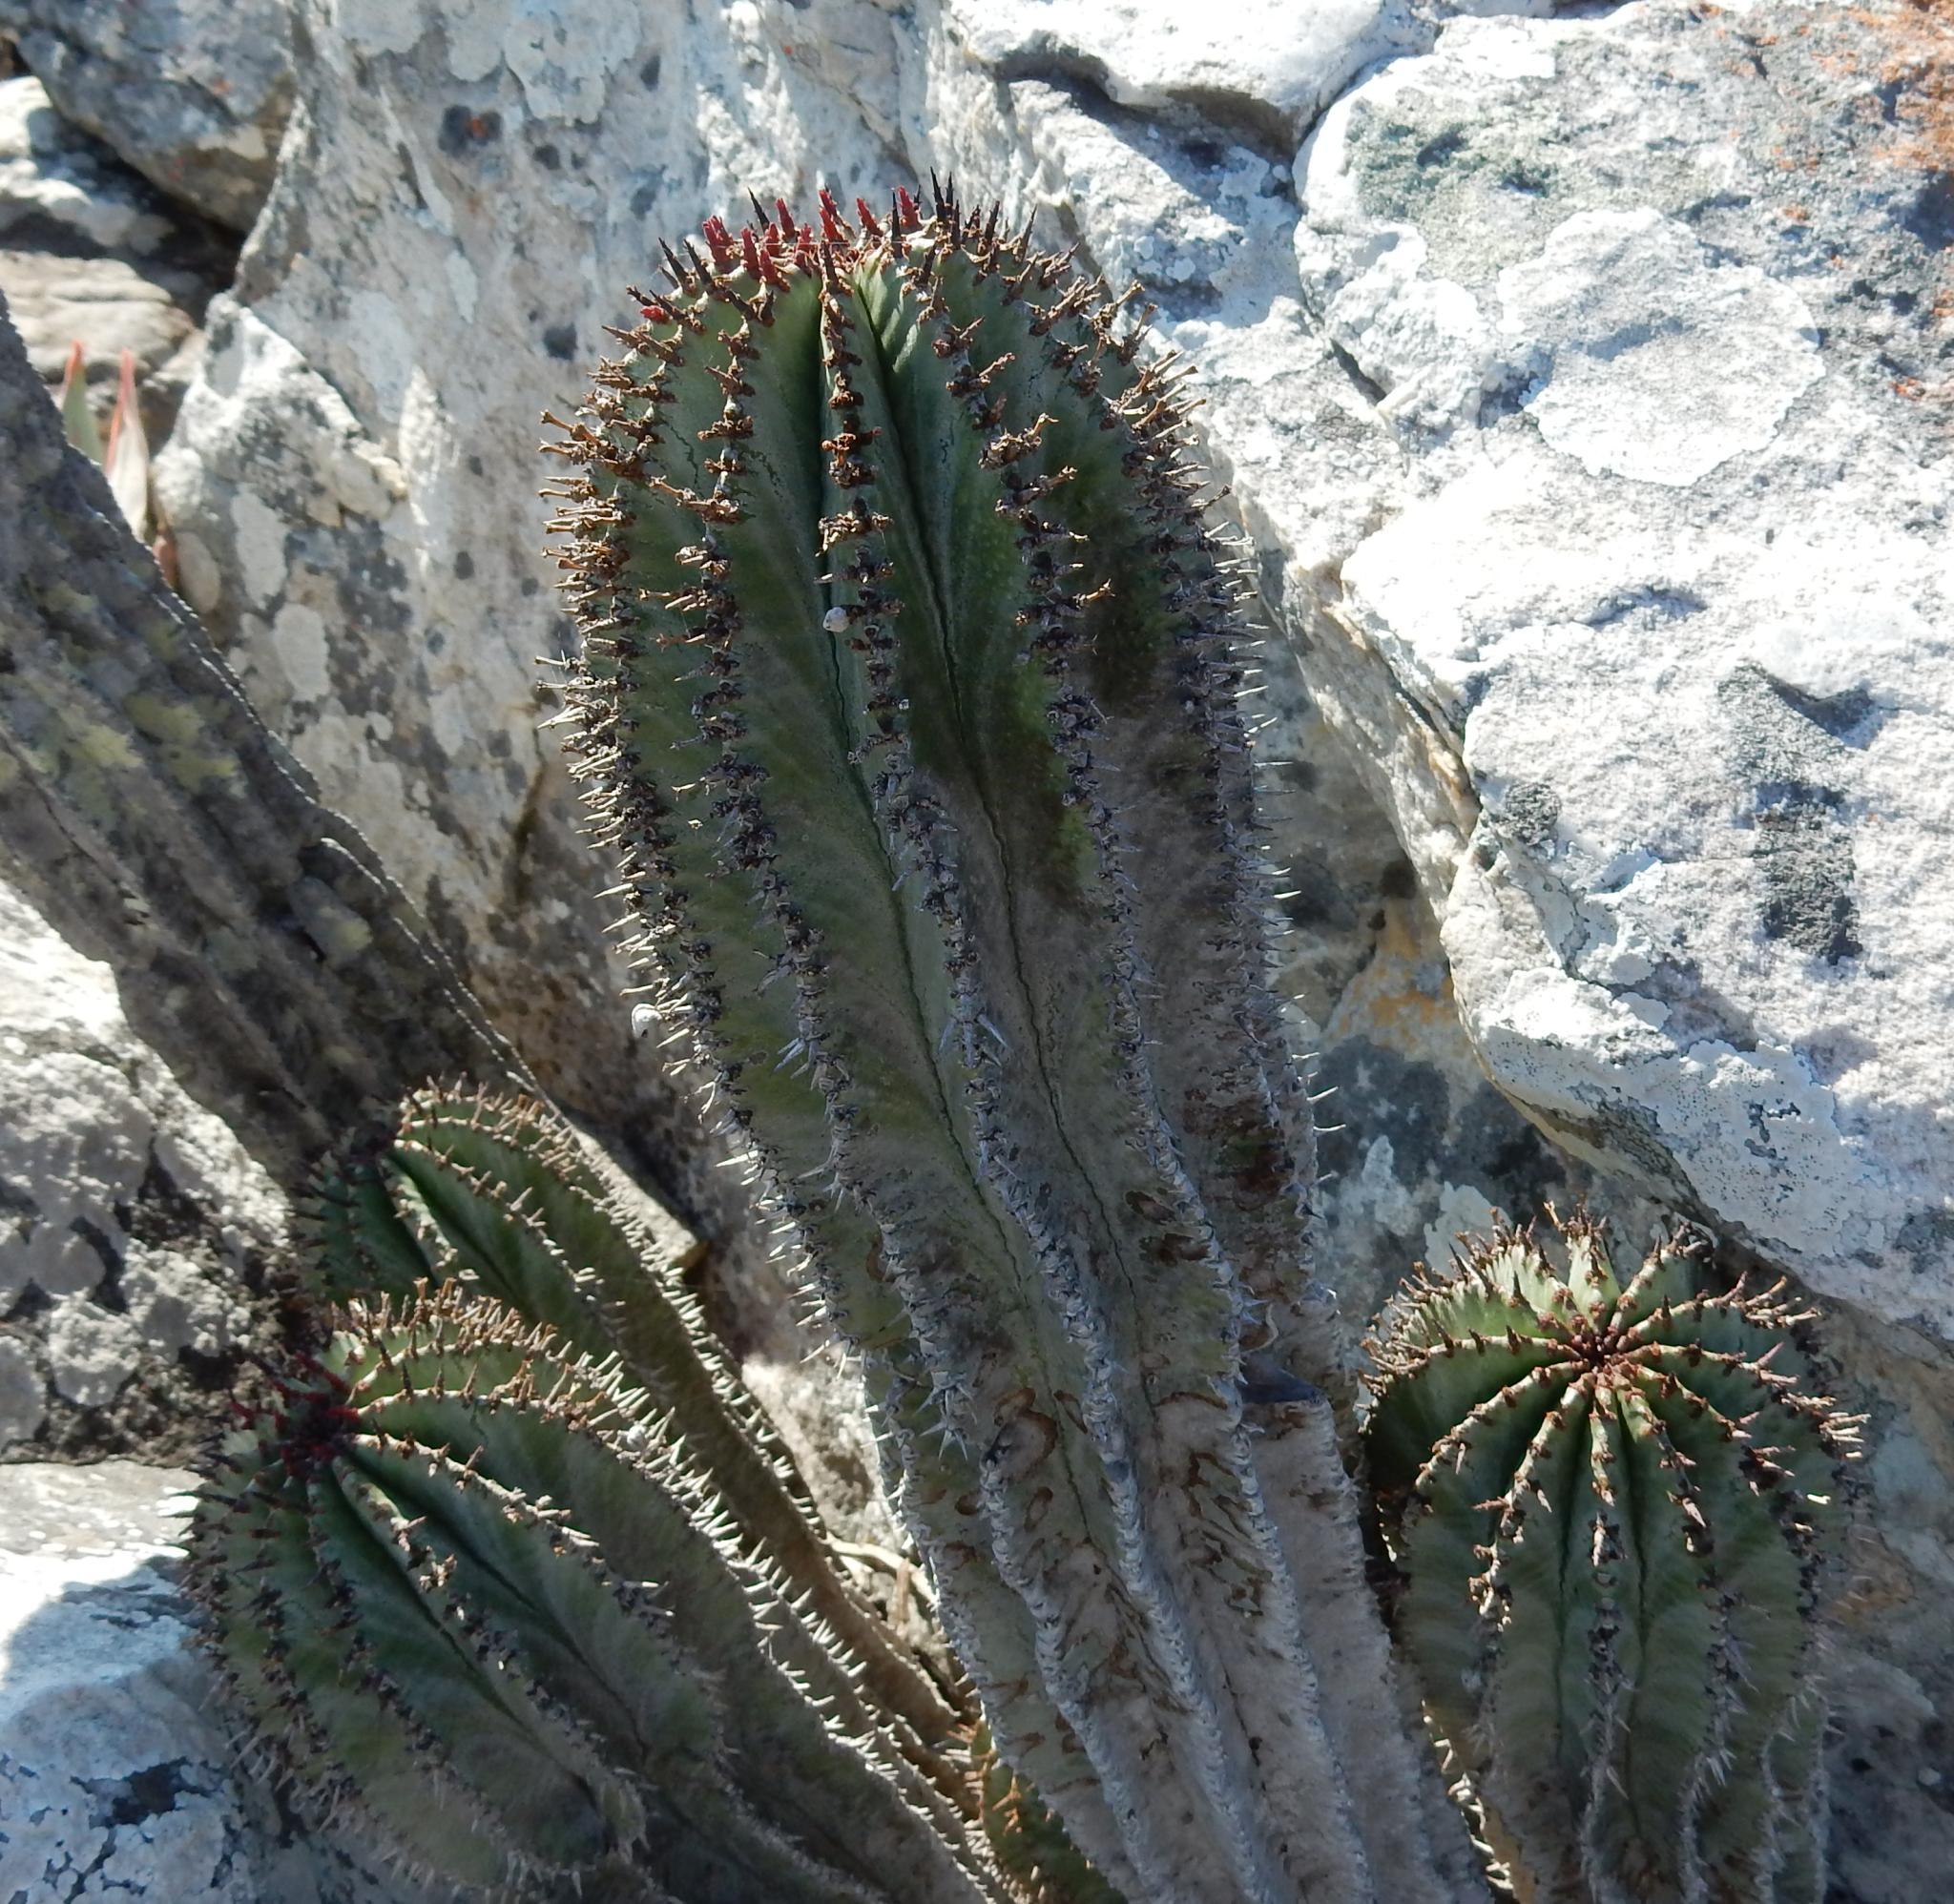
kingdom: Plantae
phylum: Tracheophyta
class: Magnoliopsida
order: Malpighiales
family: Euphorbiaceae
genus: Euphorbia
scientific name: Euphorbia polygona
